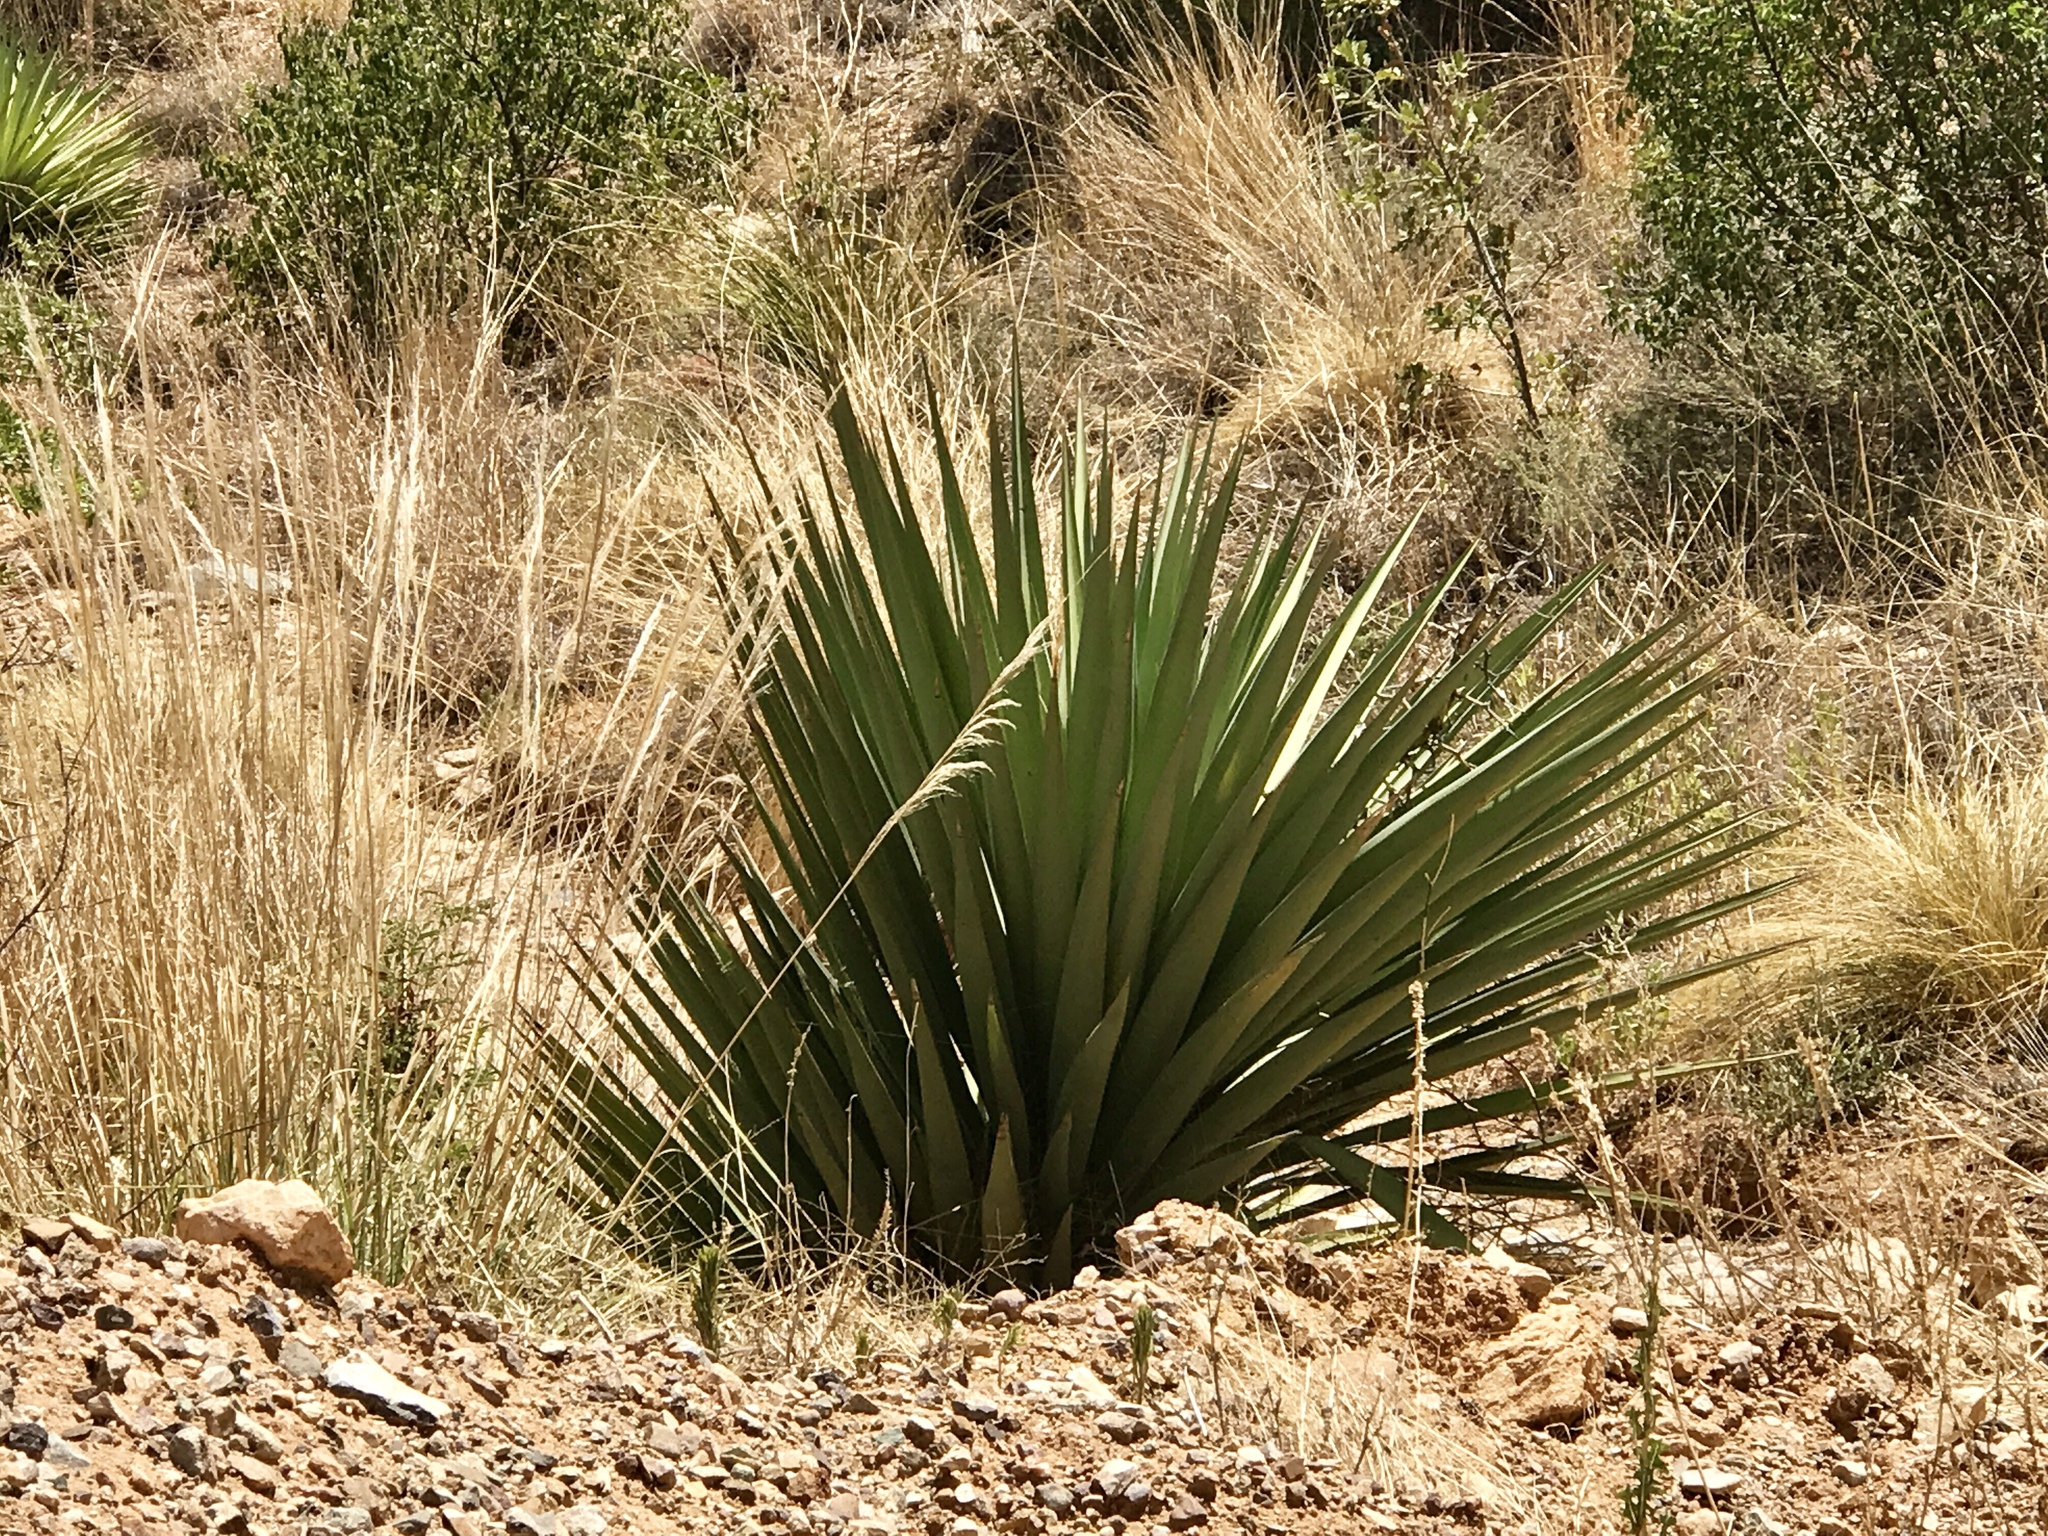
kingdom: Plantae
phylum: Tracheophyta
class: Liliopsida
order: Asparagales
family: Asparagaceae
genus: Yucca
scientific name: Yucca madrensis
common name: Hoary yucca
